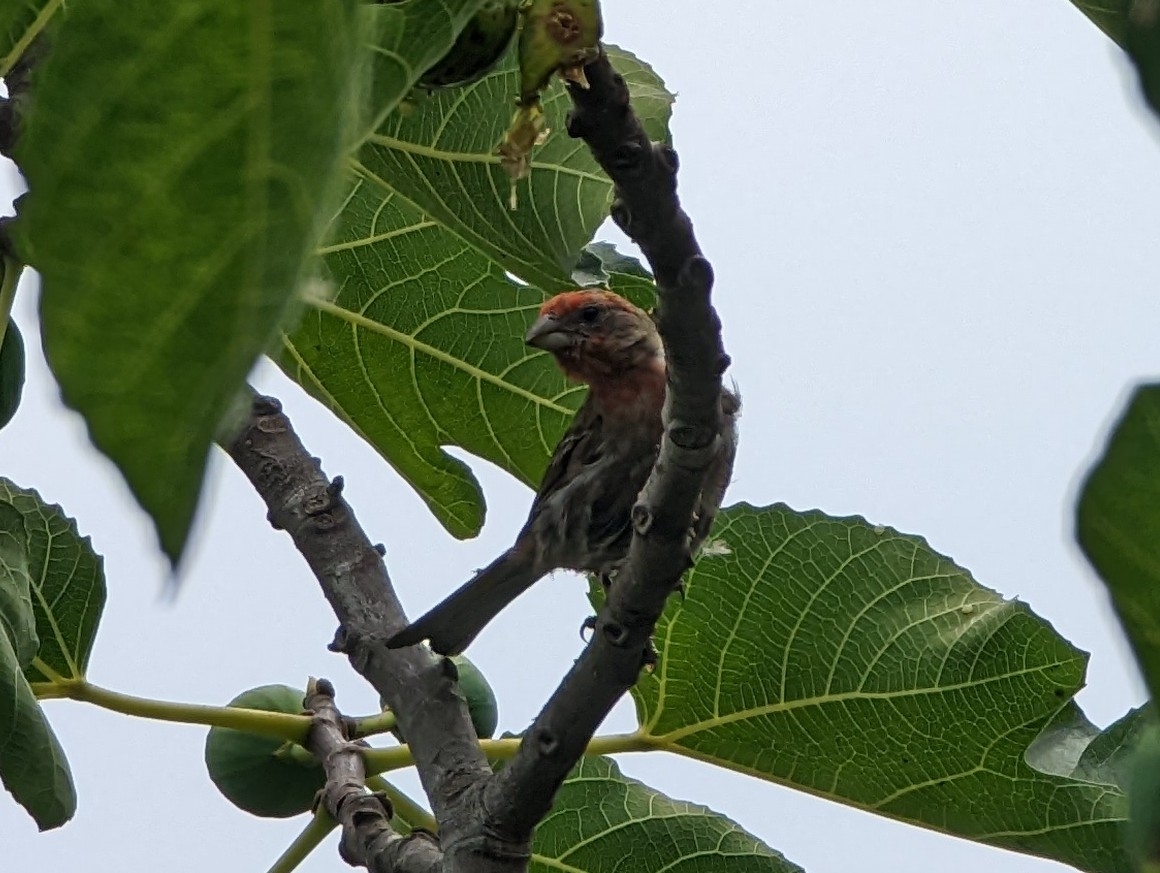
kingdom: Animalia
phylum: Chordata
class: Aves
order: Passeriformes
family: Fringillidae
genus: Haemorhous
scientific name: Haemorhous mexicanus
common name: House finch
